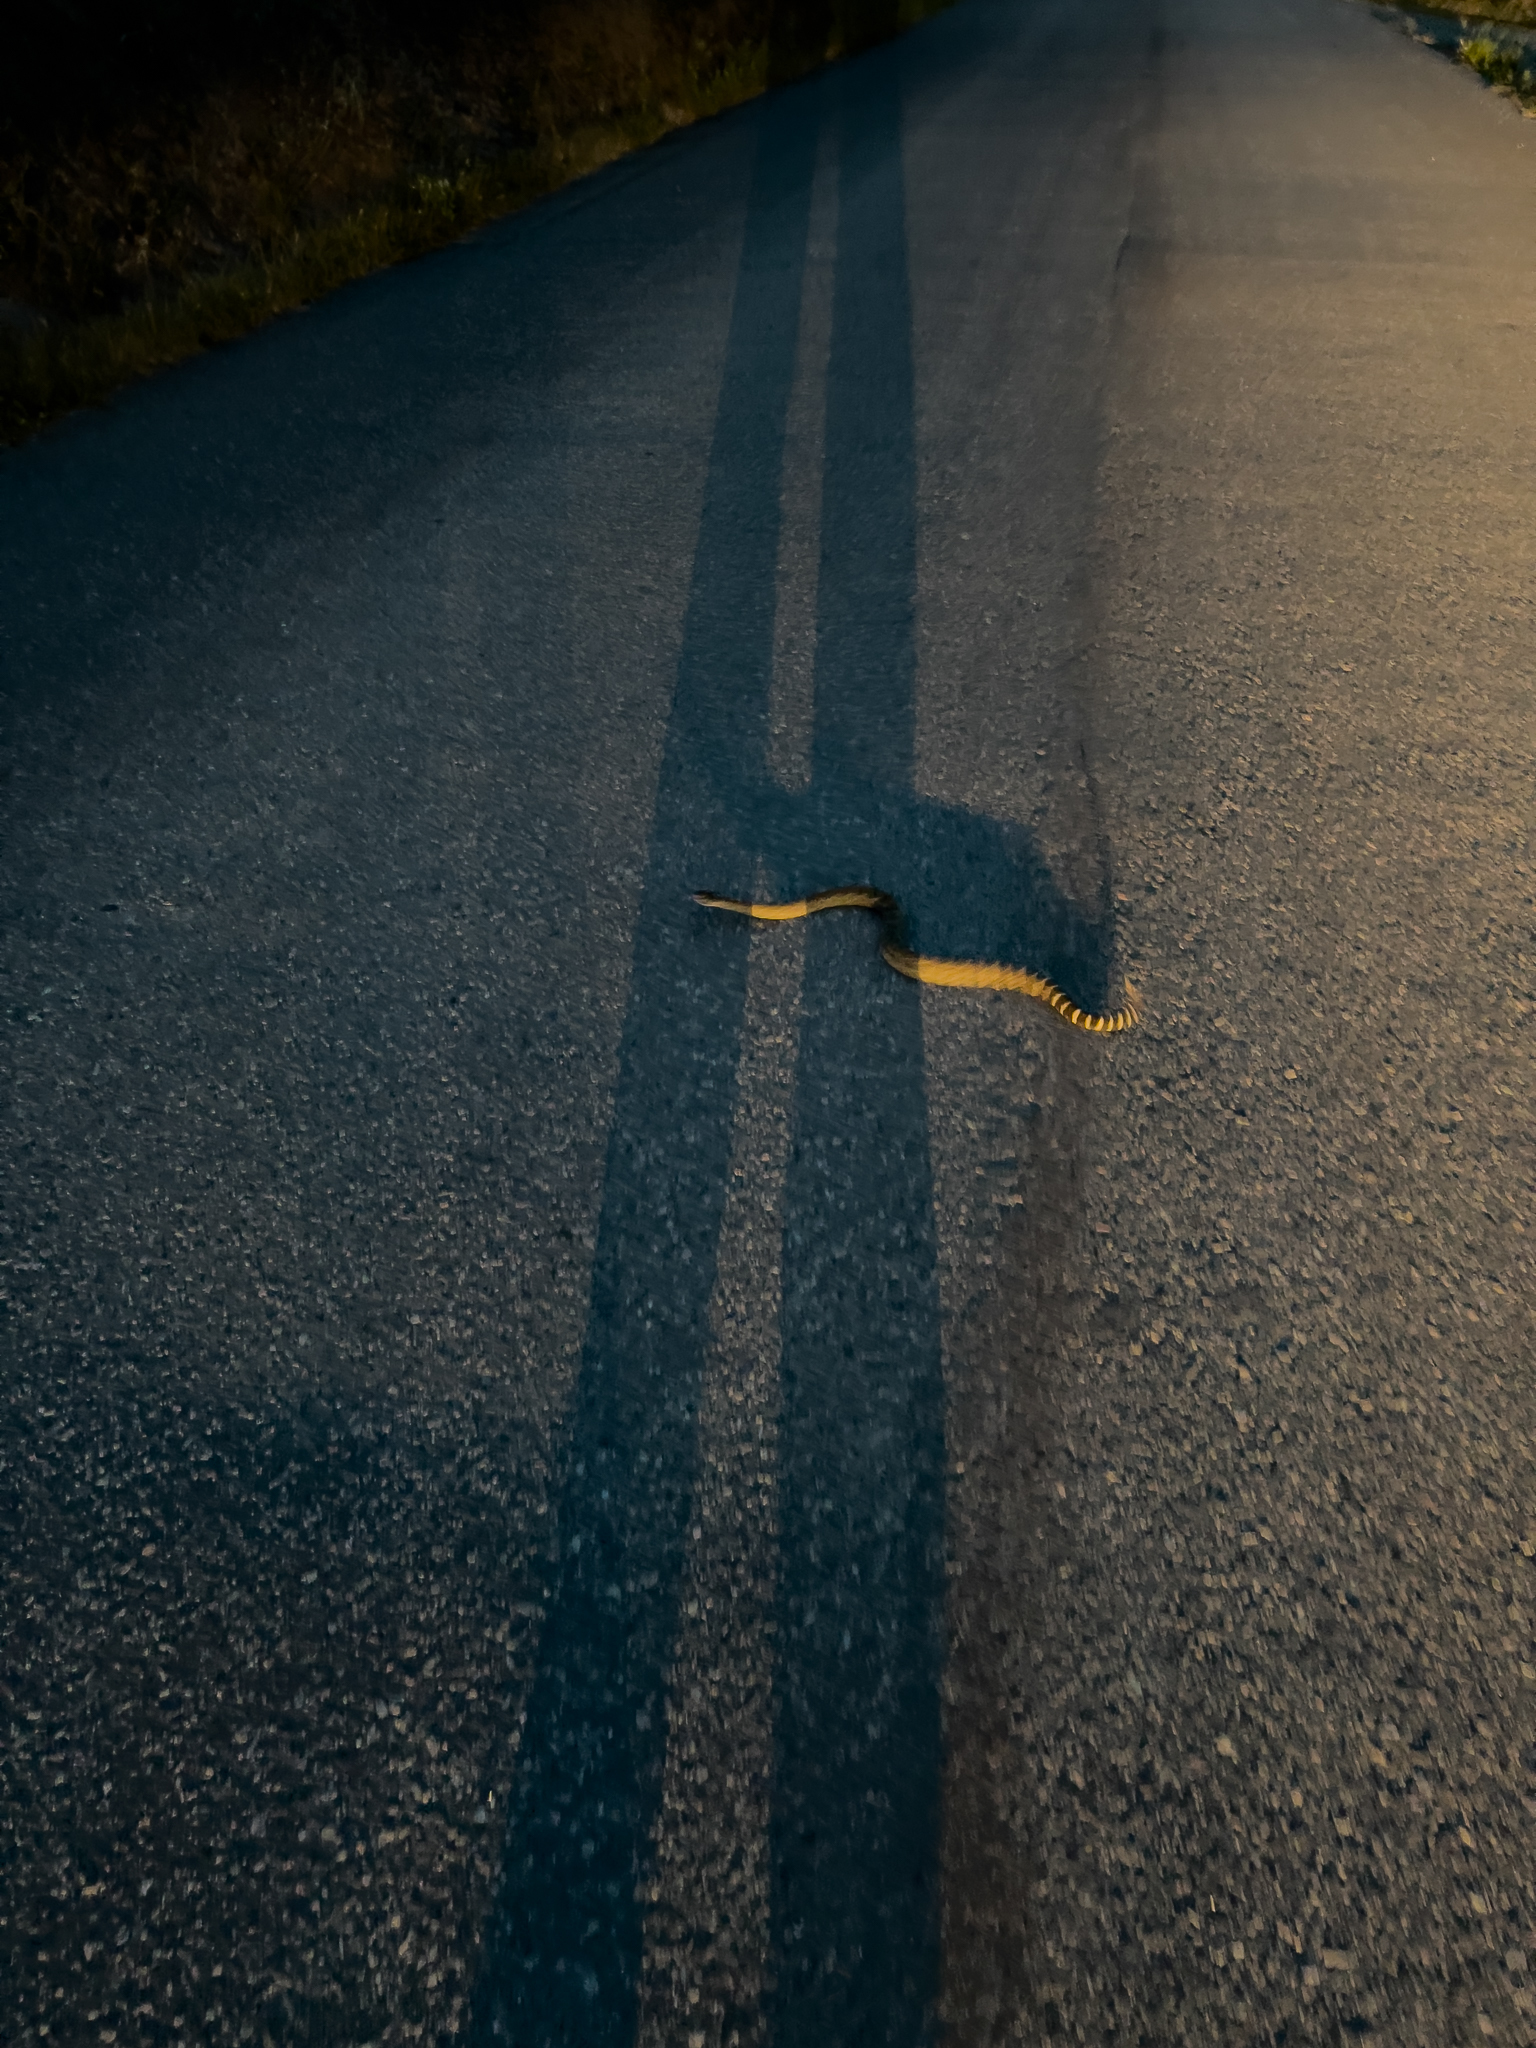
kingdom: Animalia
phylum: Chordata
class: Squamata
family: Viperidae
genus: Crotalus
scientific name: Crotalus oreganus
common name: Abyssus
